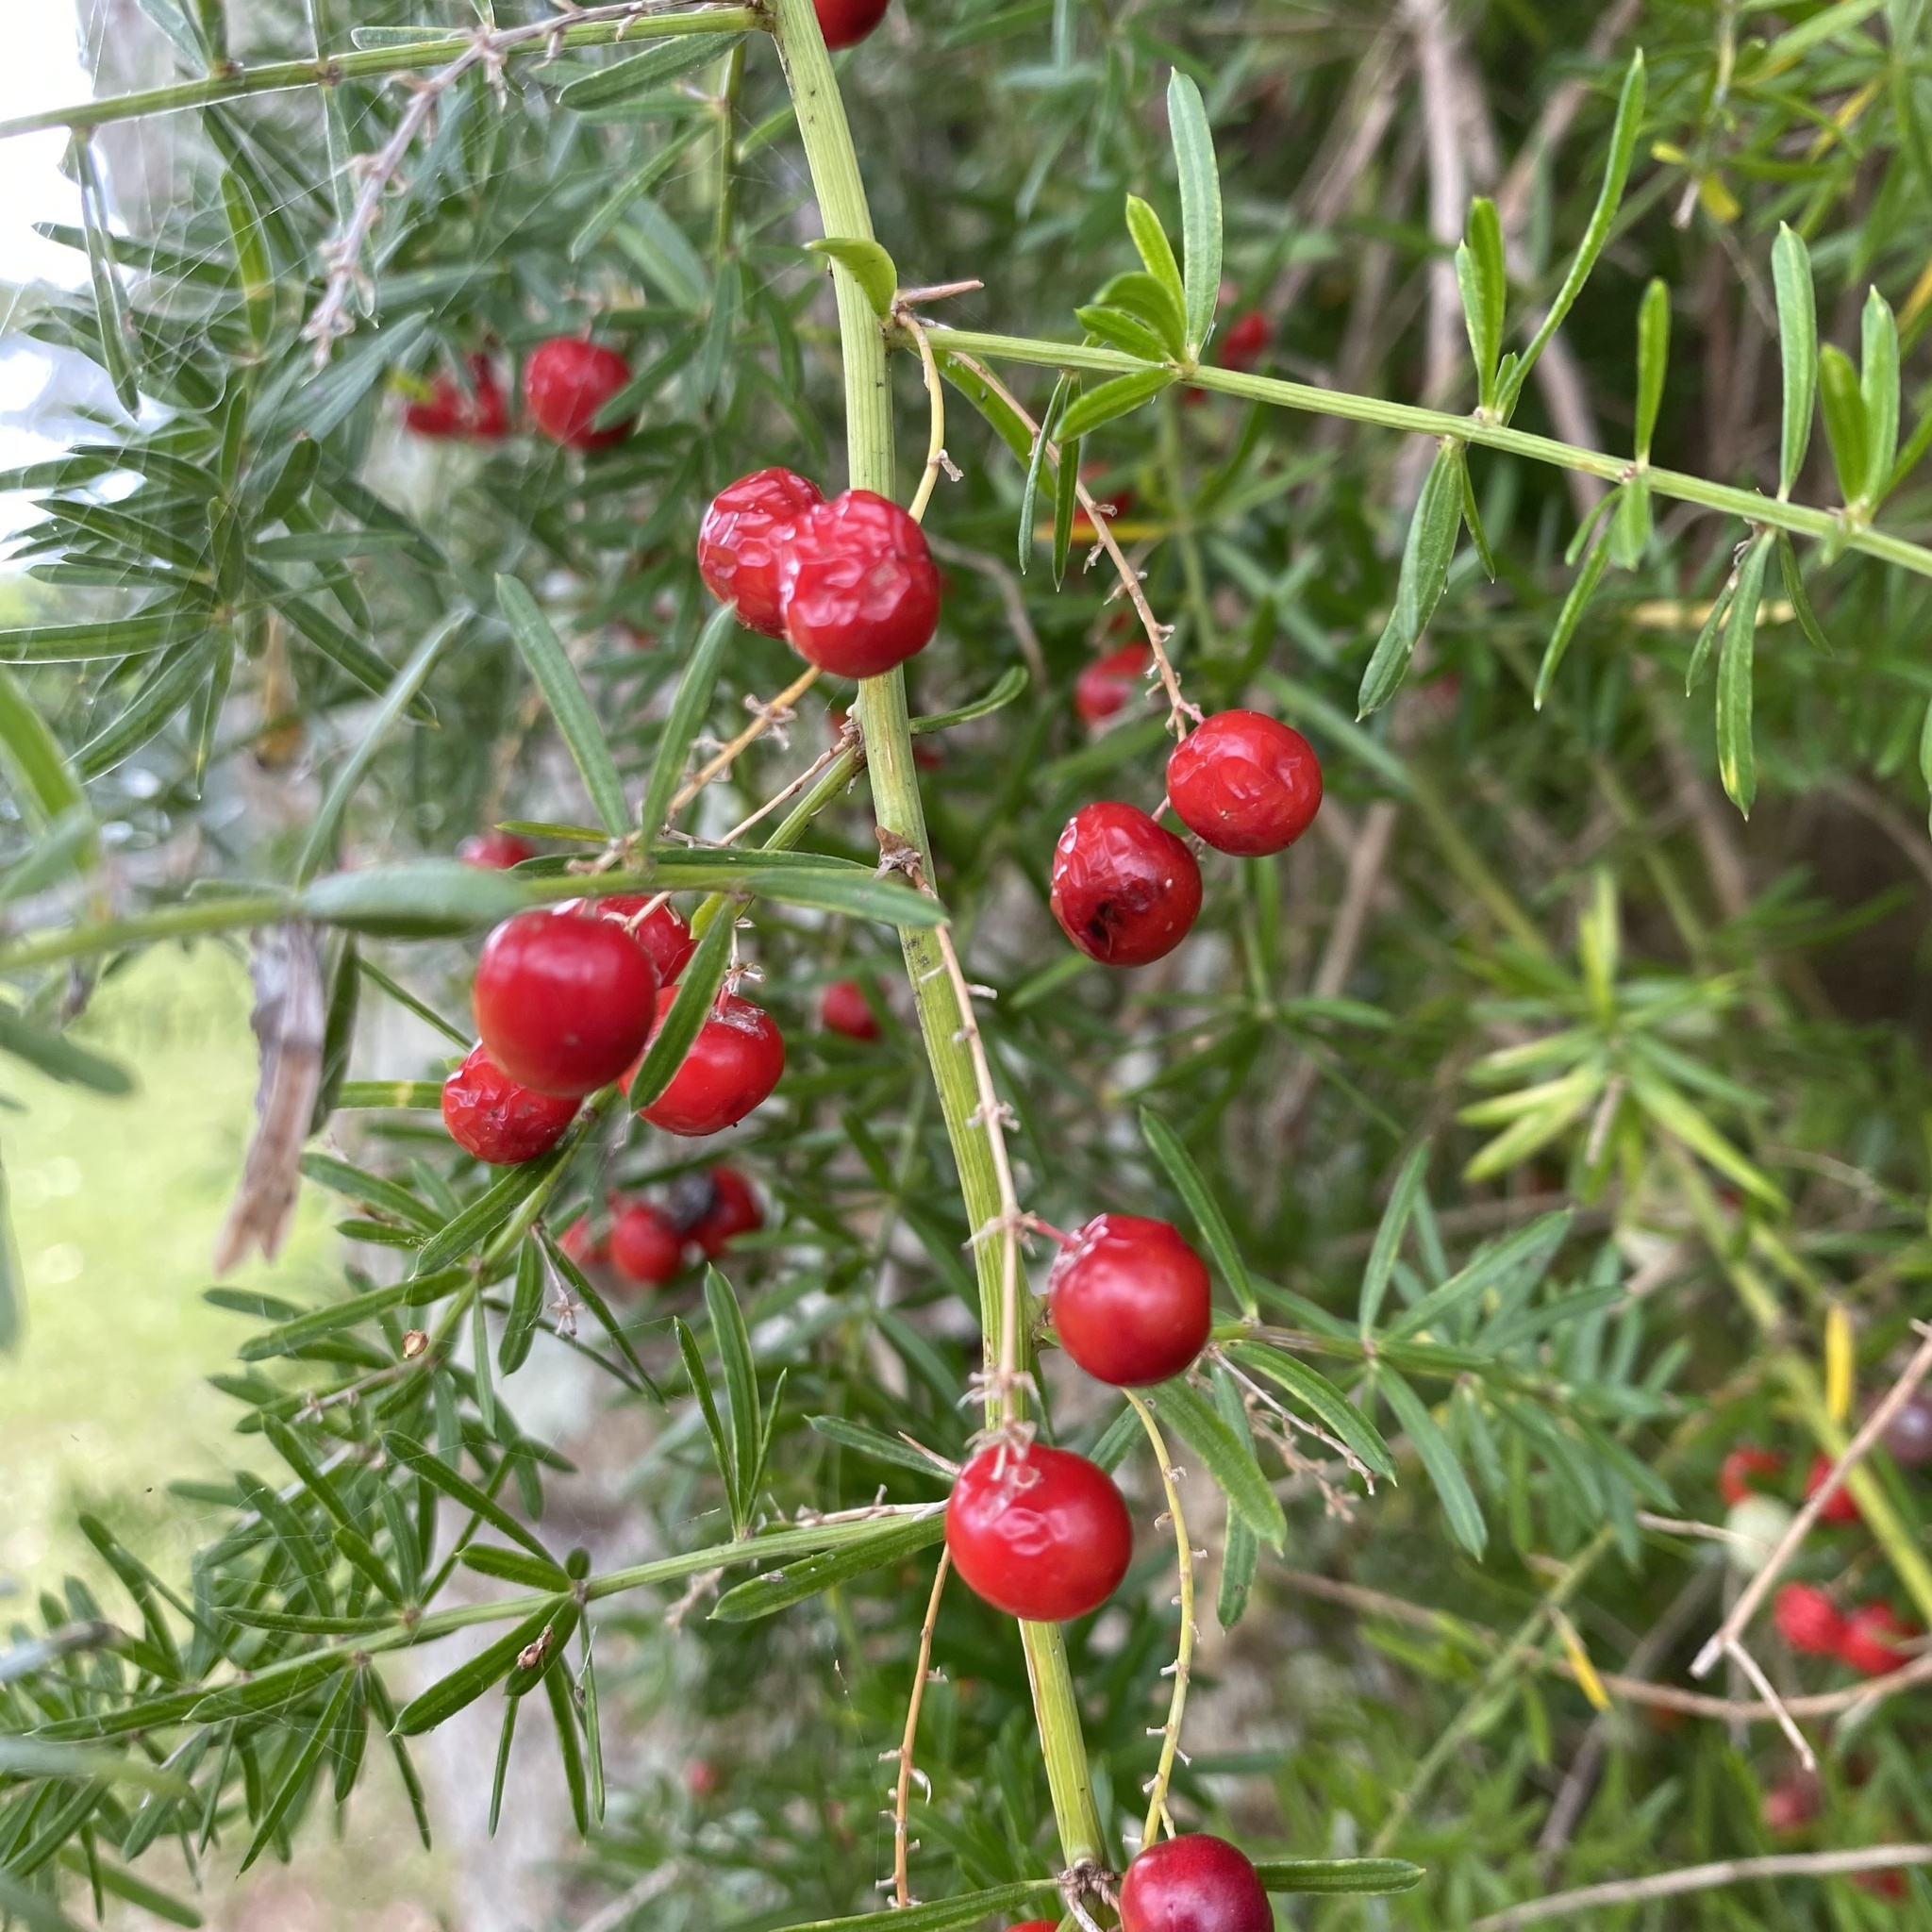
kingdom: Plantae
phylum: Tracheophyta
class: Liliopsida
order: Asparagales
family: Asparagaceae
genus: Asparagus
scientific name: Asparagus aethiopicus
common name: Sprenger's asparagus fern
